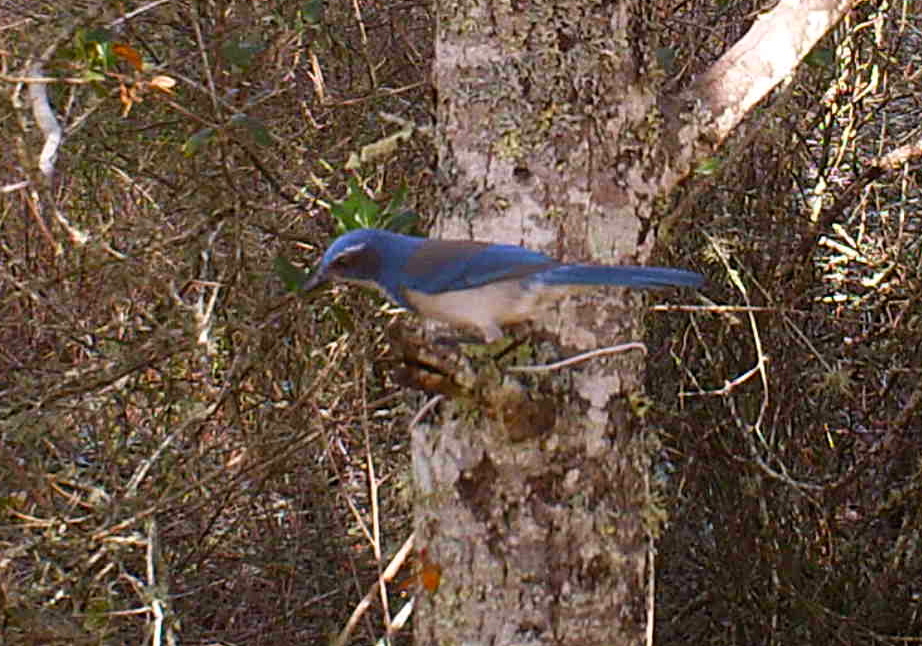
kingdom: Animalia
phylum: Chordata
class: Aves
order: Passeriformes
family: Corvidae
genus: Aphelocoma
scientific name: Aphelocoma californica
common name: California scrub-jay
